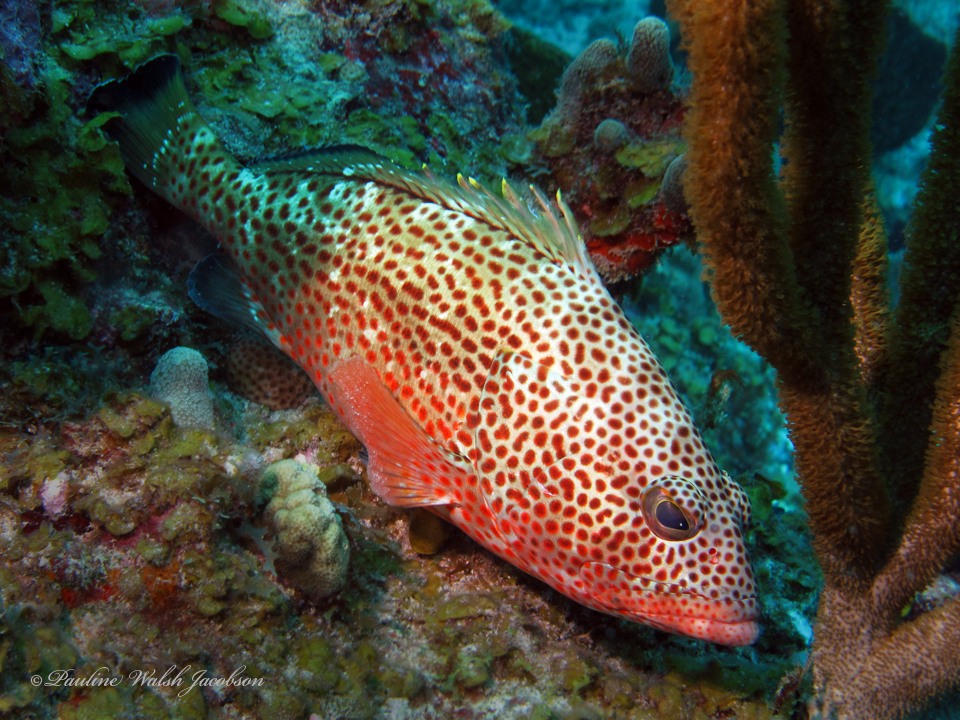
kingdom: Animalia
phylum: Chordata
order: Perciformes
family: Serranidae
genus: Epinephelus
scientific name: Epinephelus guttatus
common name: Red hind
